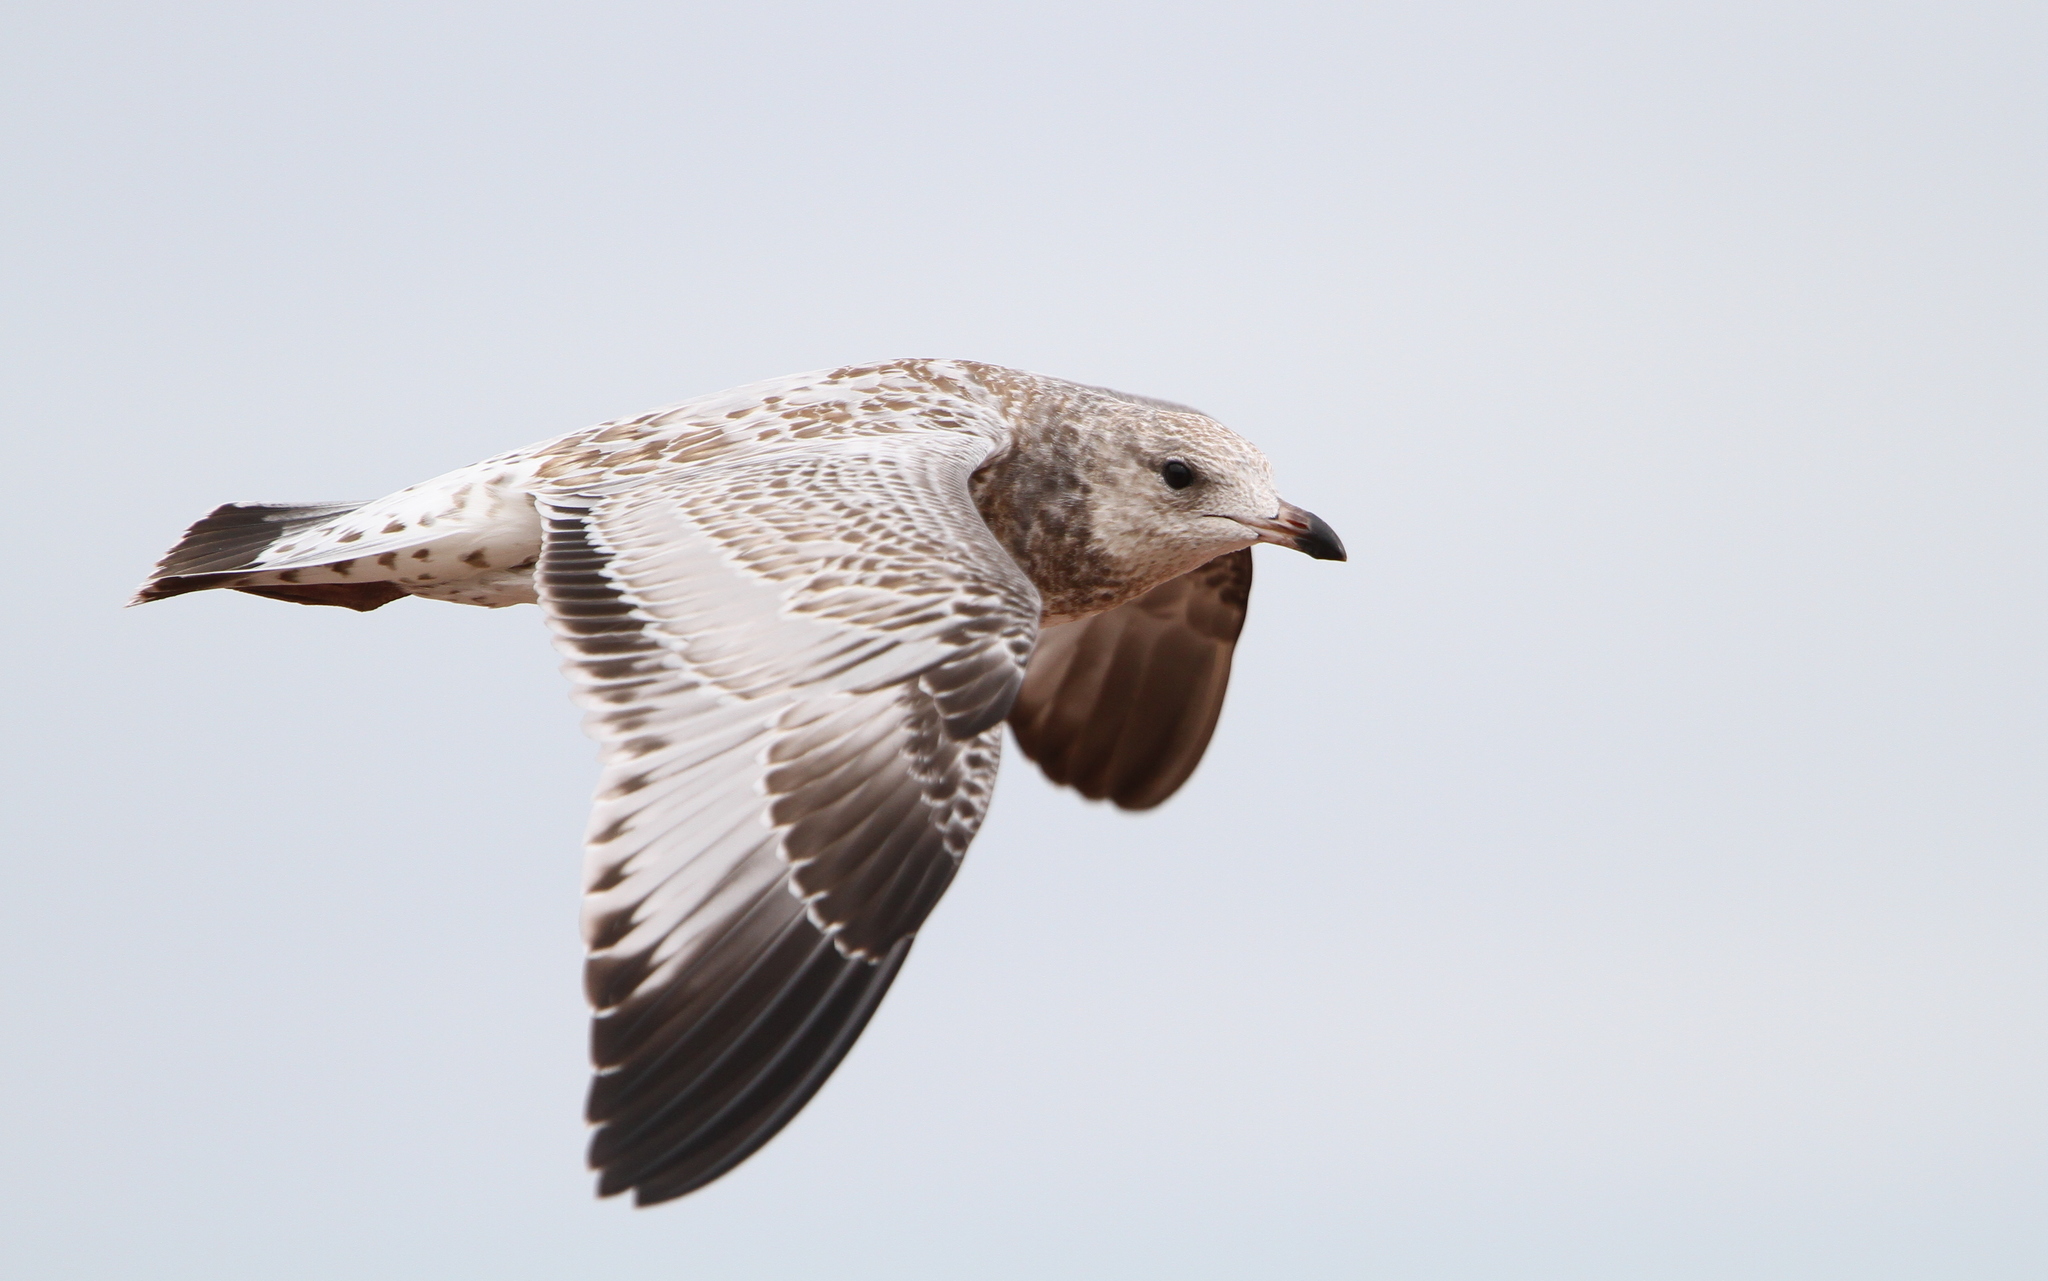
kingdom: Animalia
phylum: Chordata
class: Aves
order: Charadriiformes
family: Laridae
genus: Larus
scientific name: Larus delawarensis
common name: Ring-billed gull
